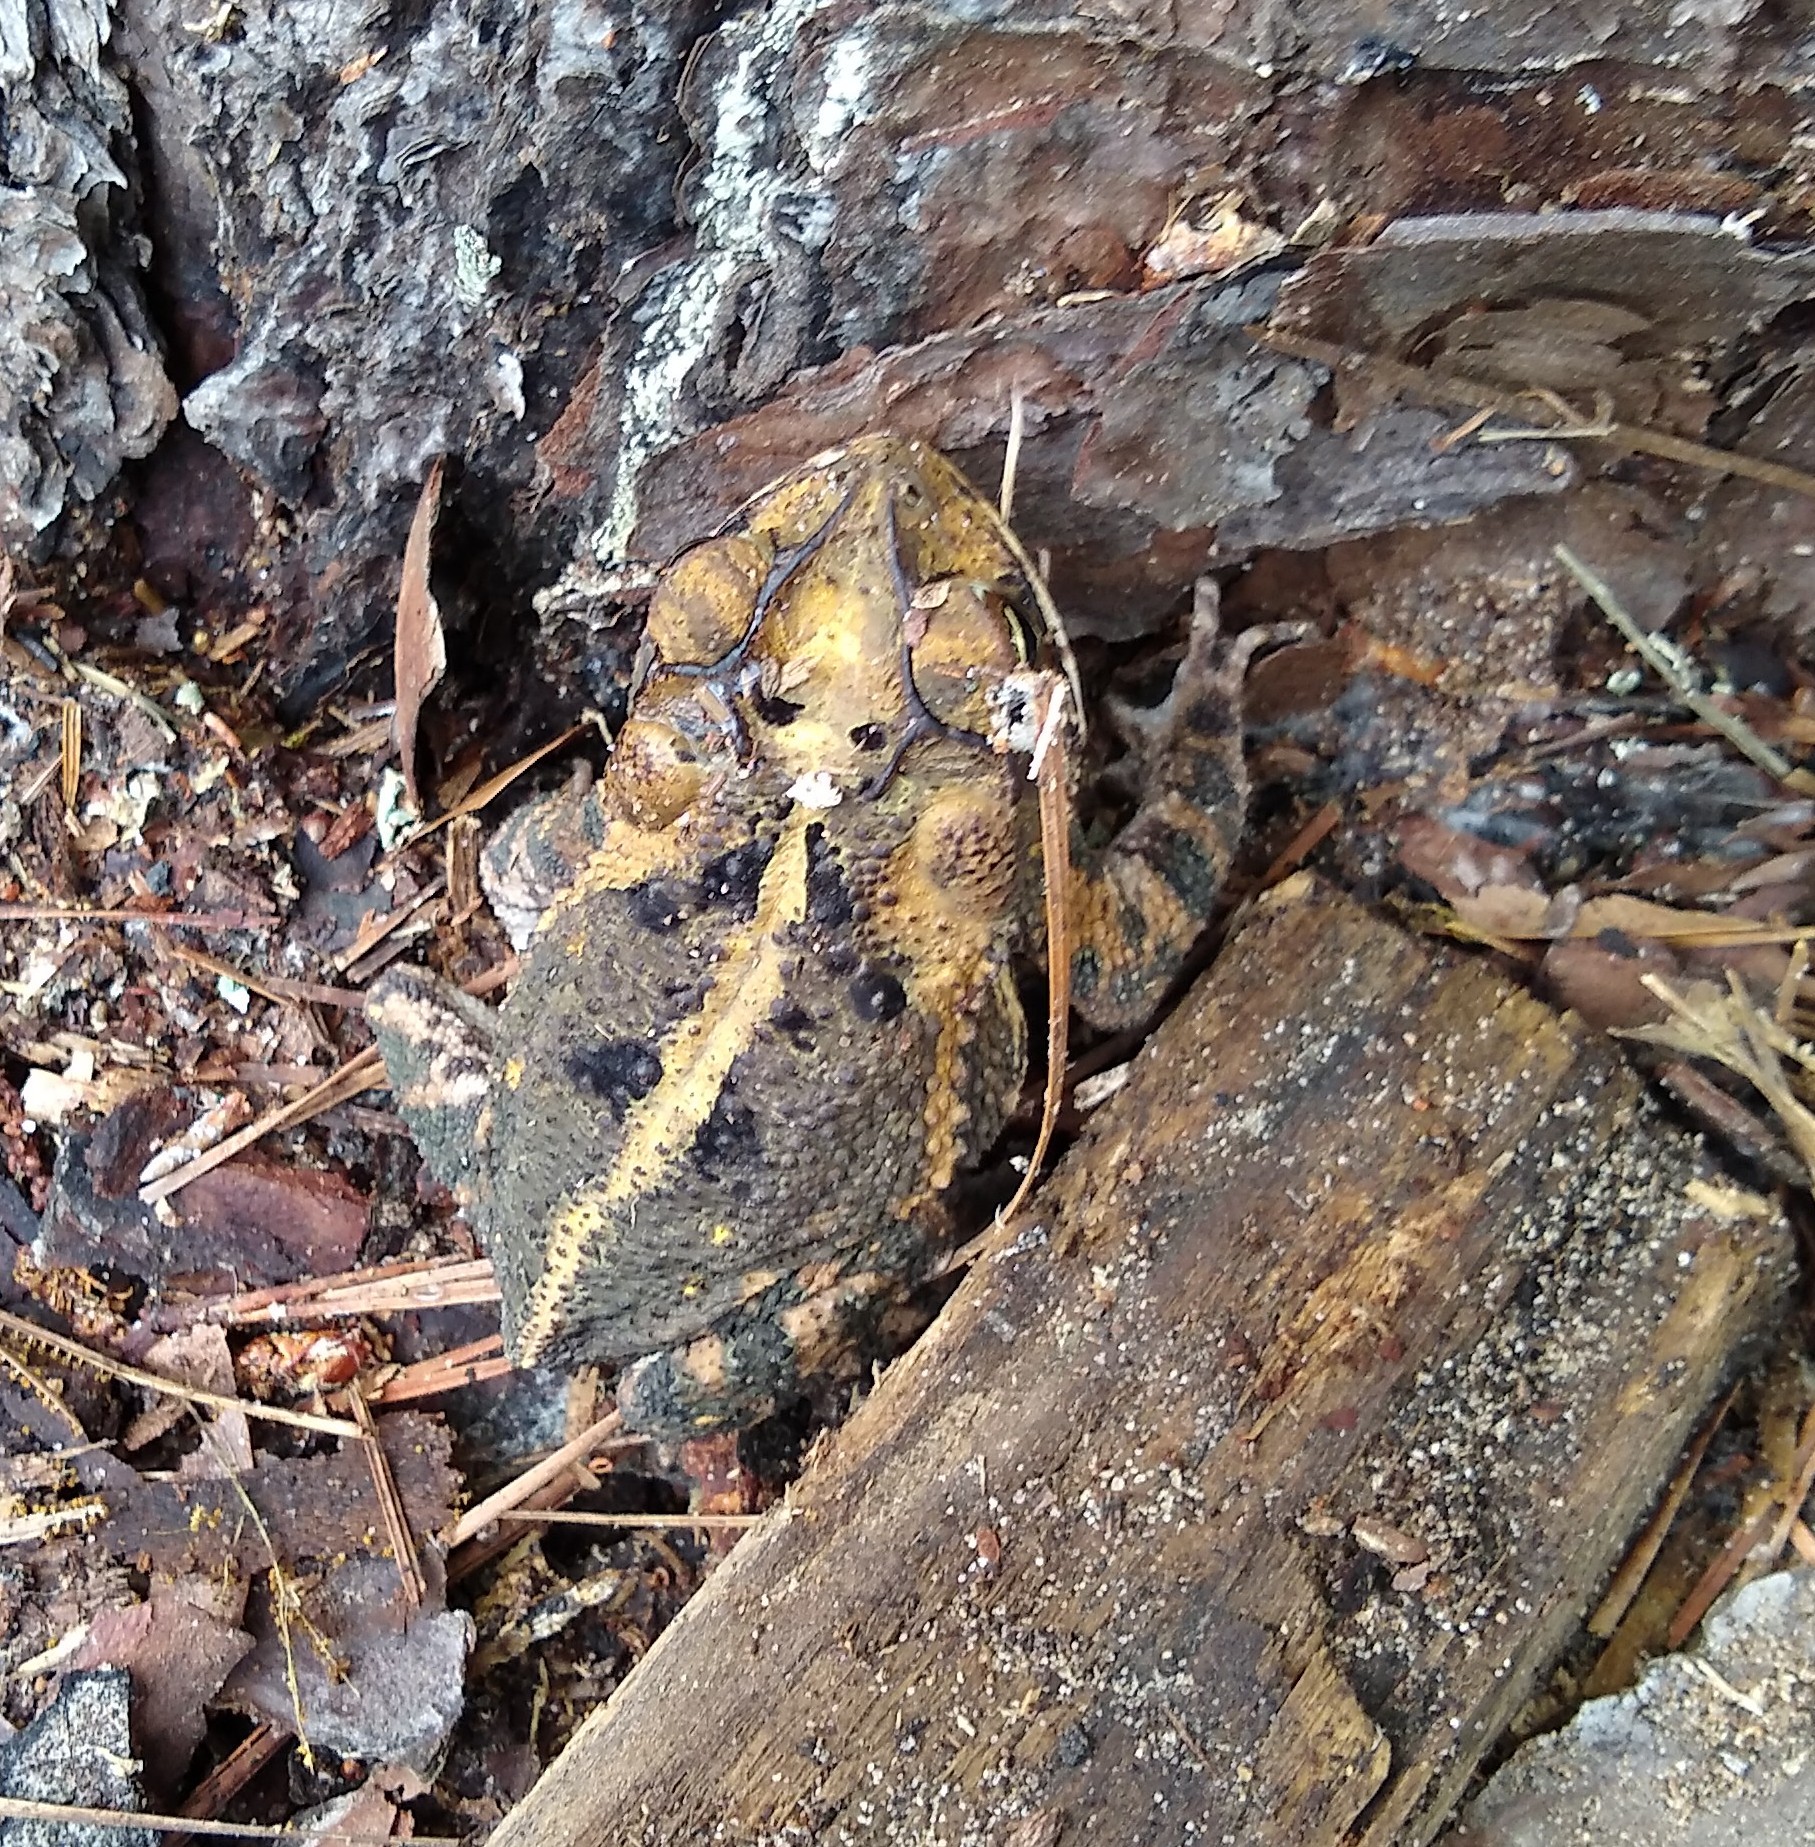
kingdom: Animalia
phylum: Chordata
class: Amphibia
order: Anura
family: Bufonidae
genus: Incilius
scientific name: Incilius nebulifer
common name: Gulf coast toad
